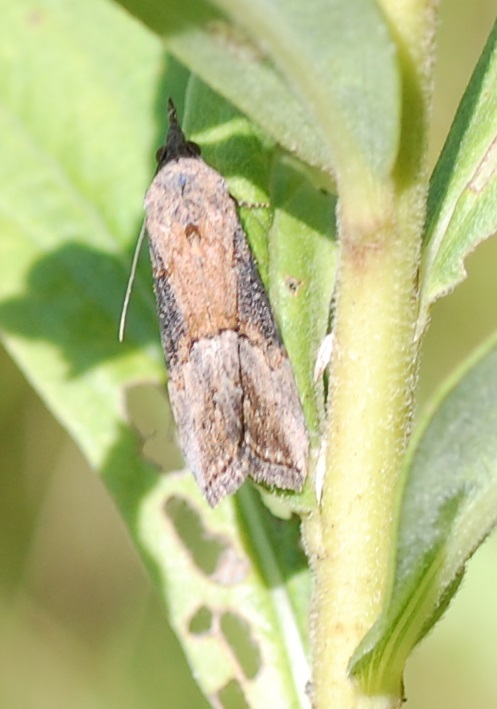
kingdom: Animalia
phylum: Arthropoda
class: Insecta
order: Lepidoptera
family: Erebidae
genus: Hypena
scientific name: Hypena scabra
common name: Green cloverworm
